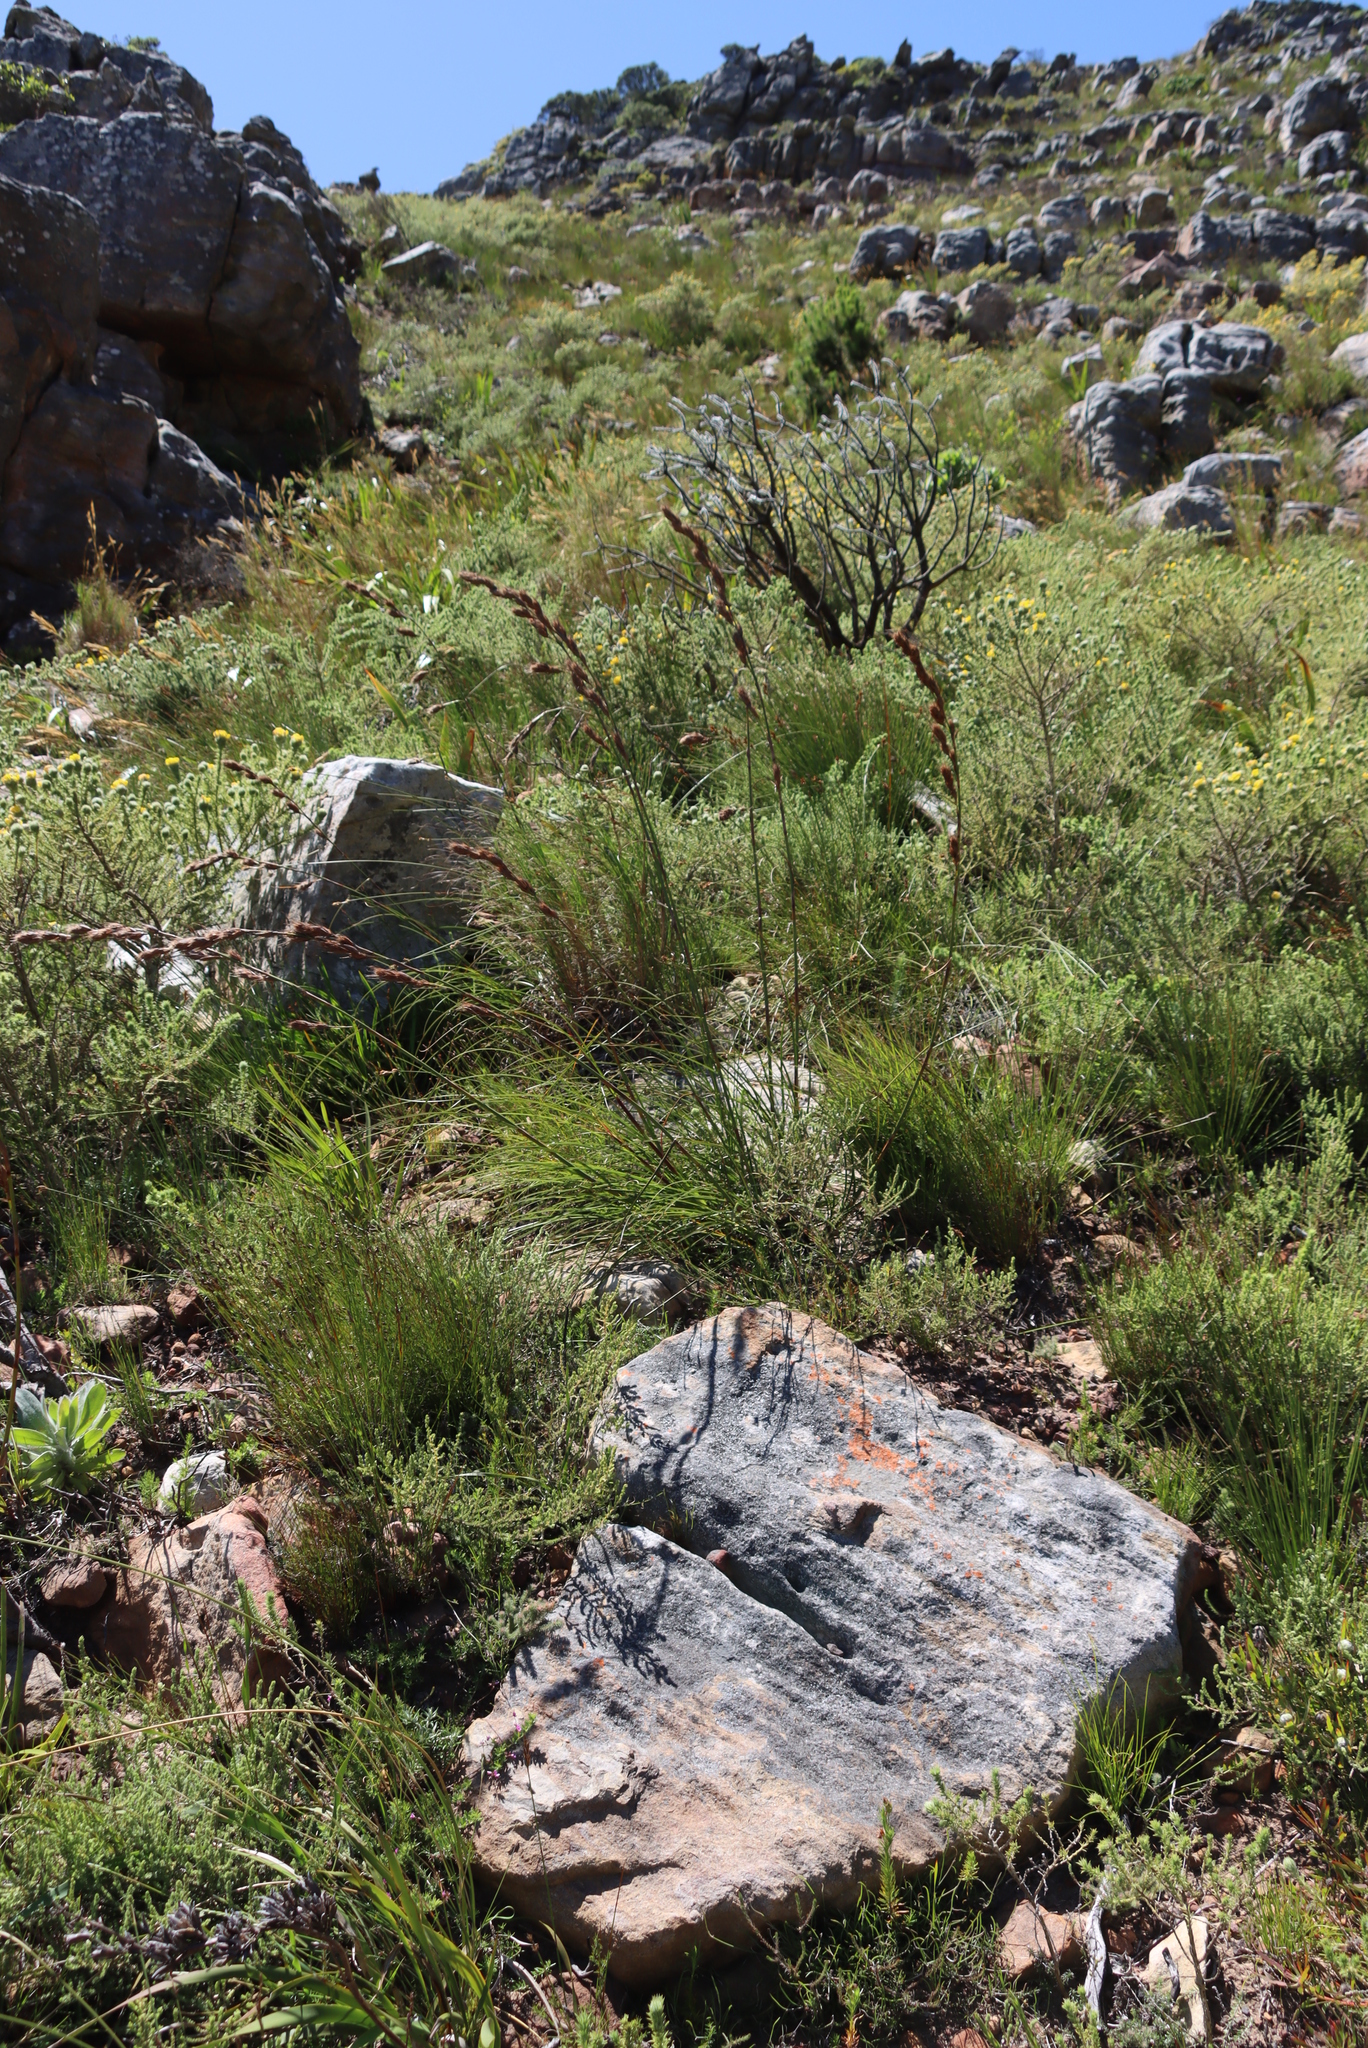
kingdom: Plantae
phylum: Tracheophyta
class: Liliopsida
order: Poales
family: Cyperaceae
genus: Tetraria
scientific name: Tetraria bromoides
